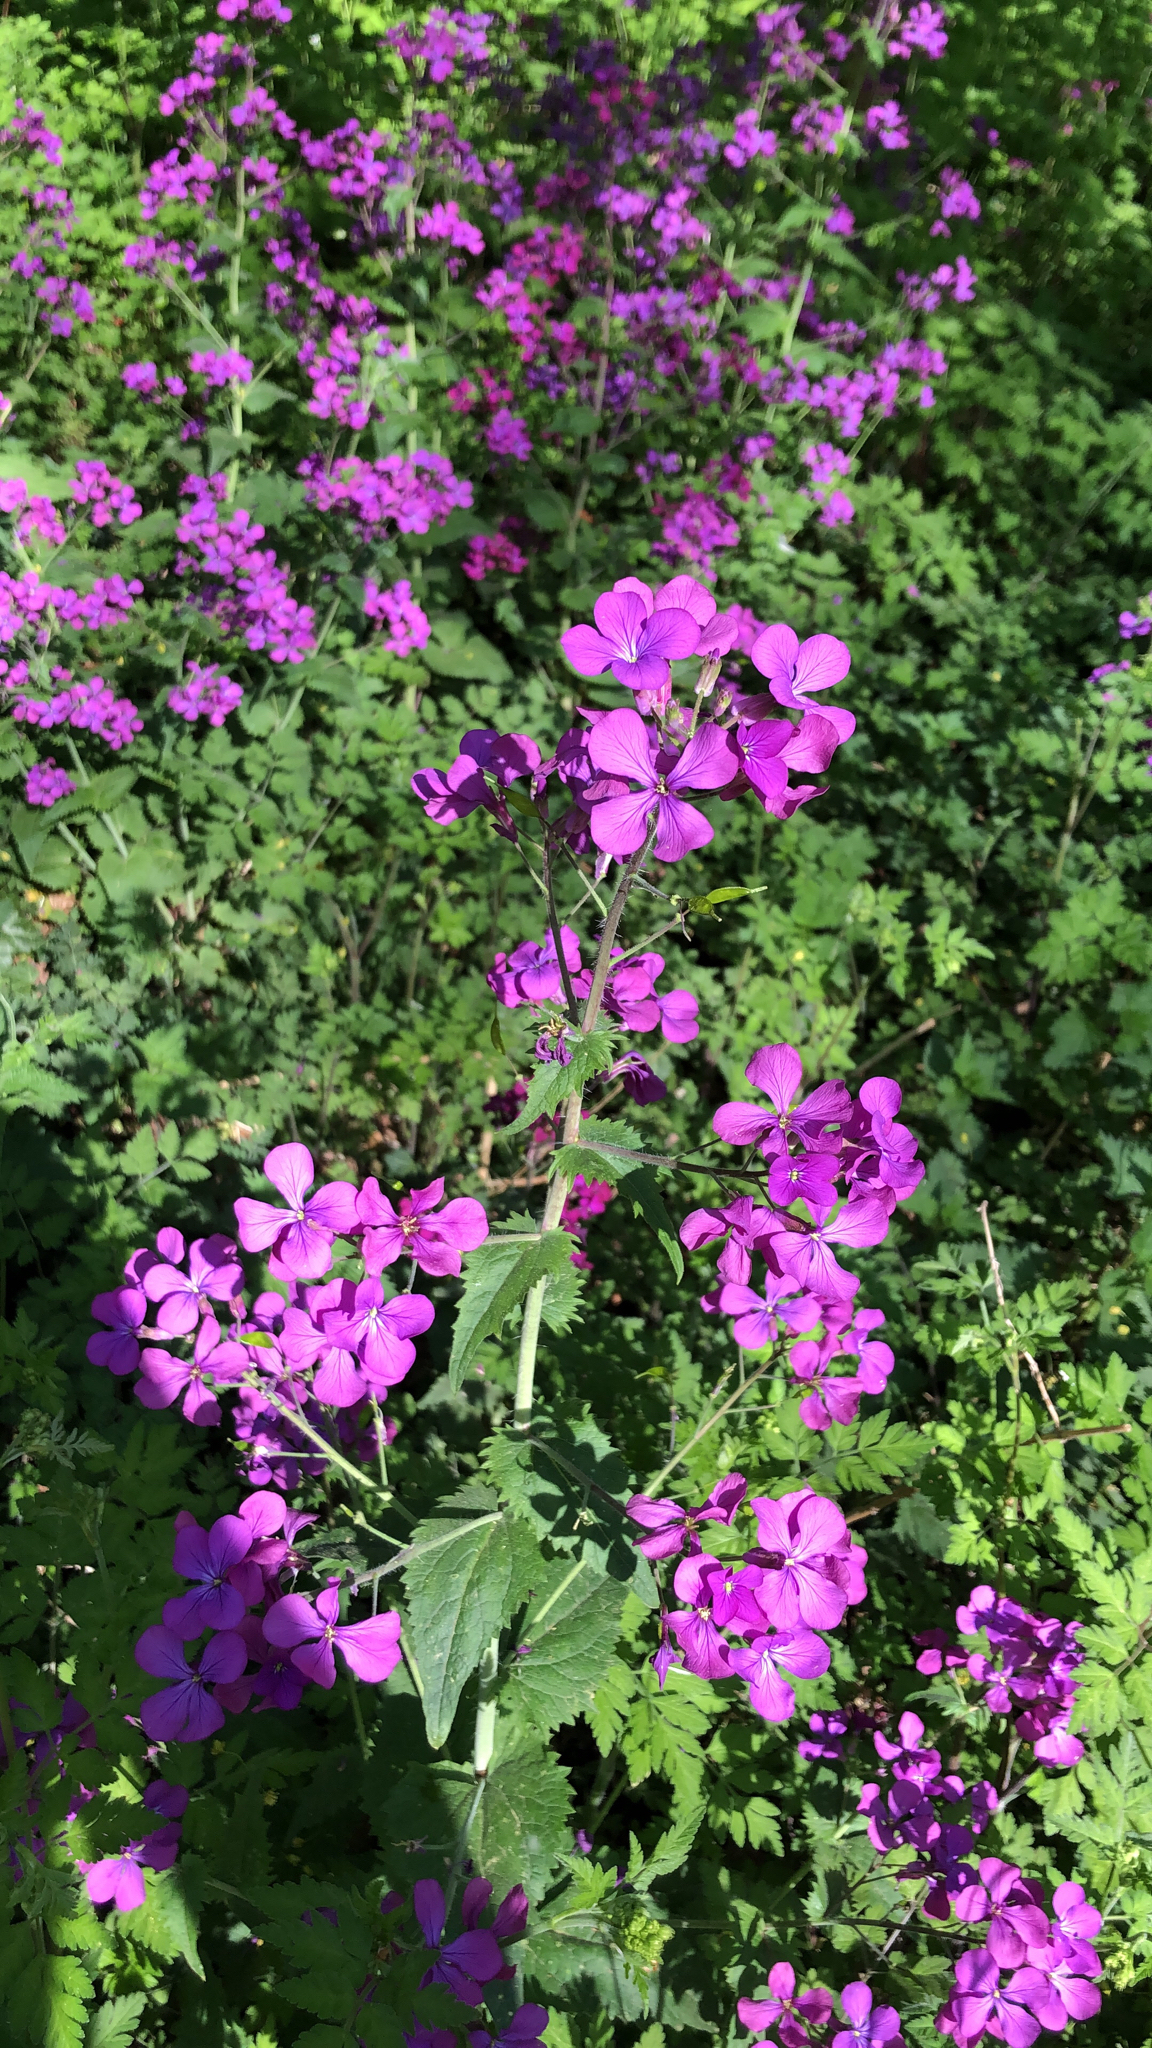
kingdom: Plantae
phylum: Tracheophyta
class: Magnoliopsida
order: Brassicales
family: Brassicaceae
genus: Lunaria
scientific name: Lunaria annua
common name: Honesty
